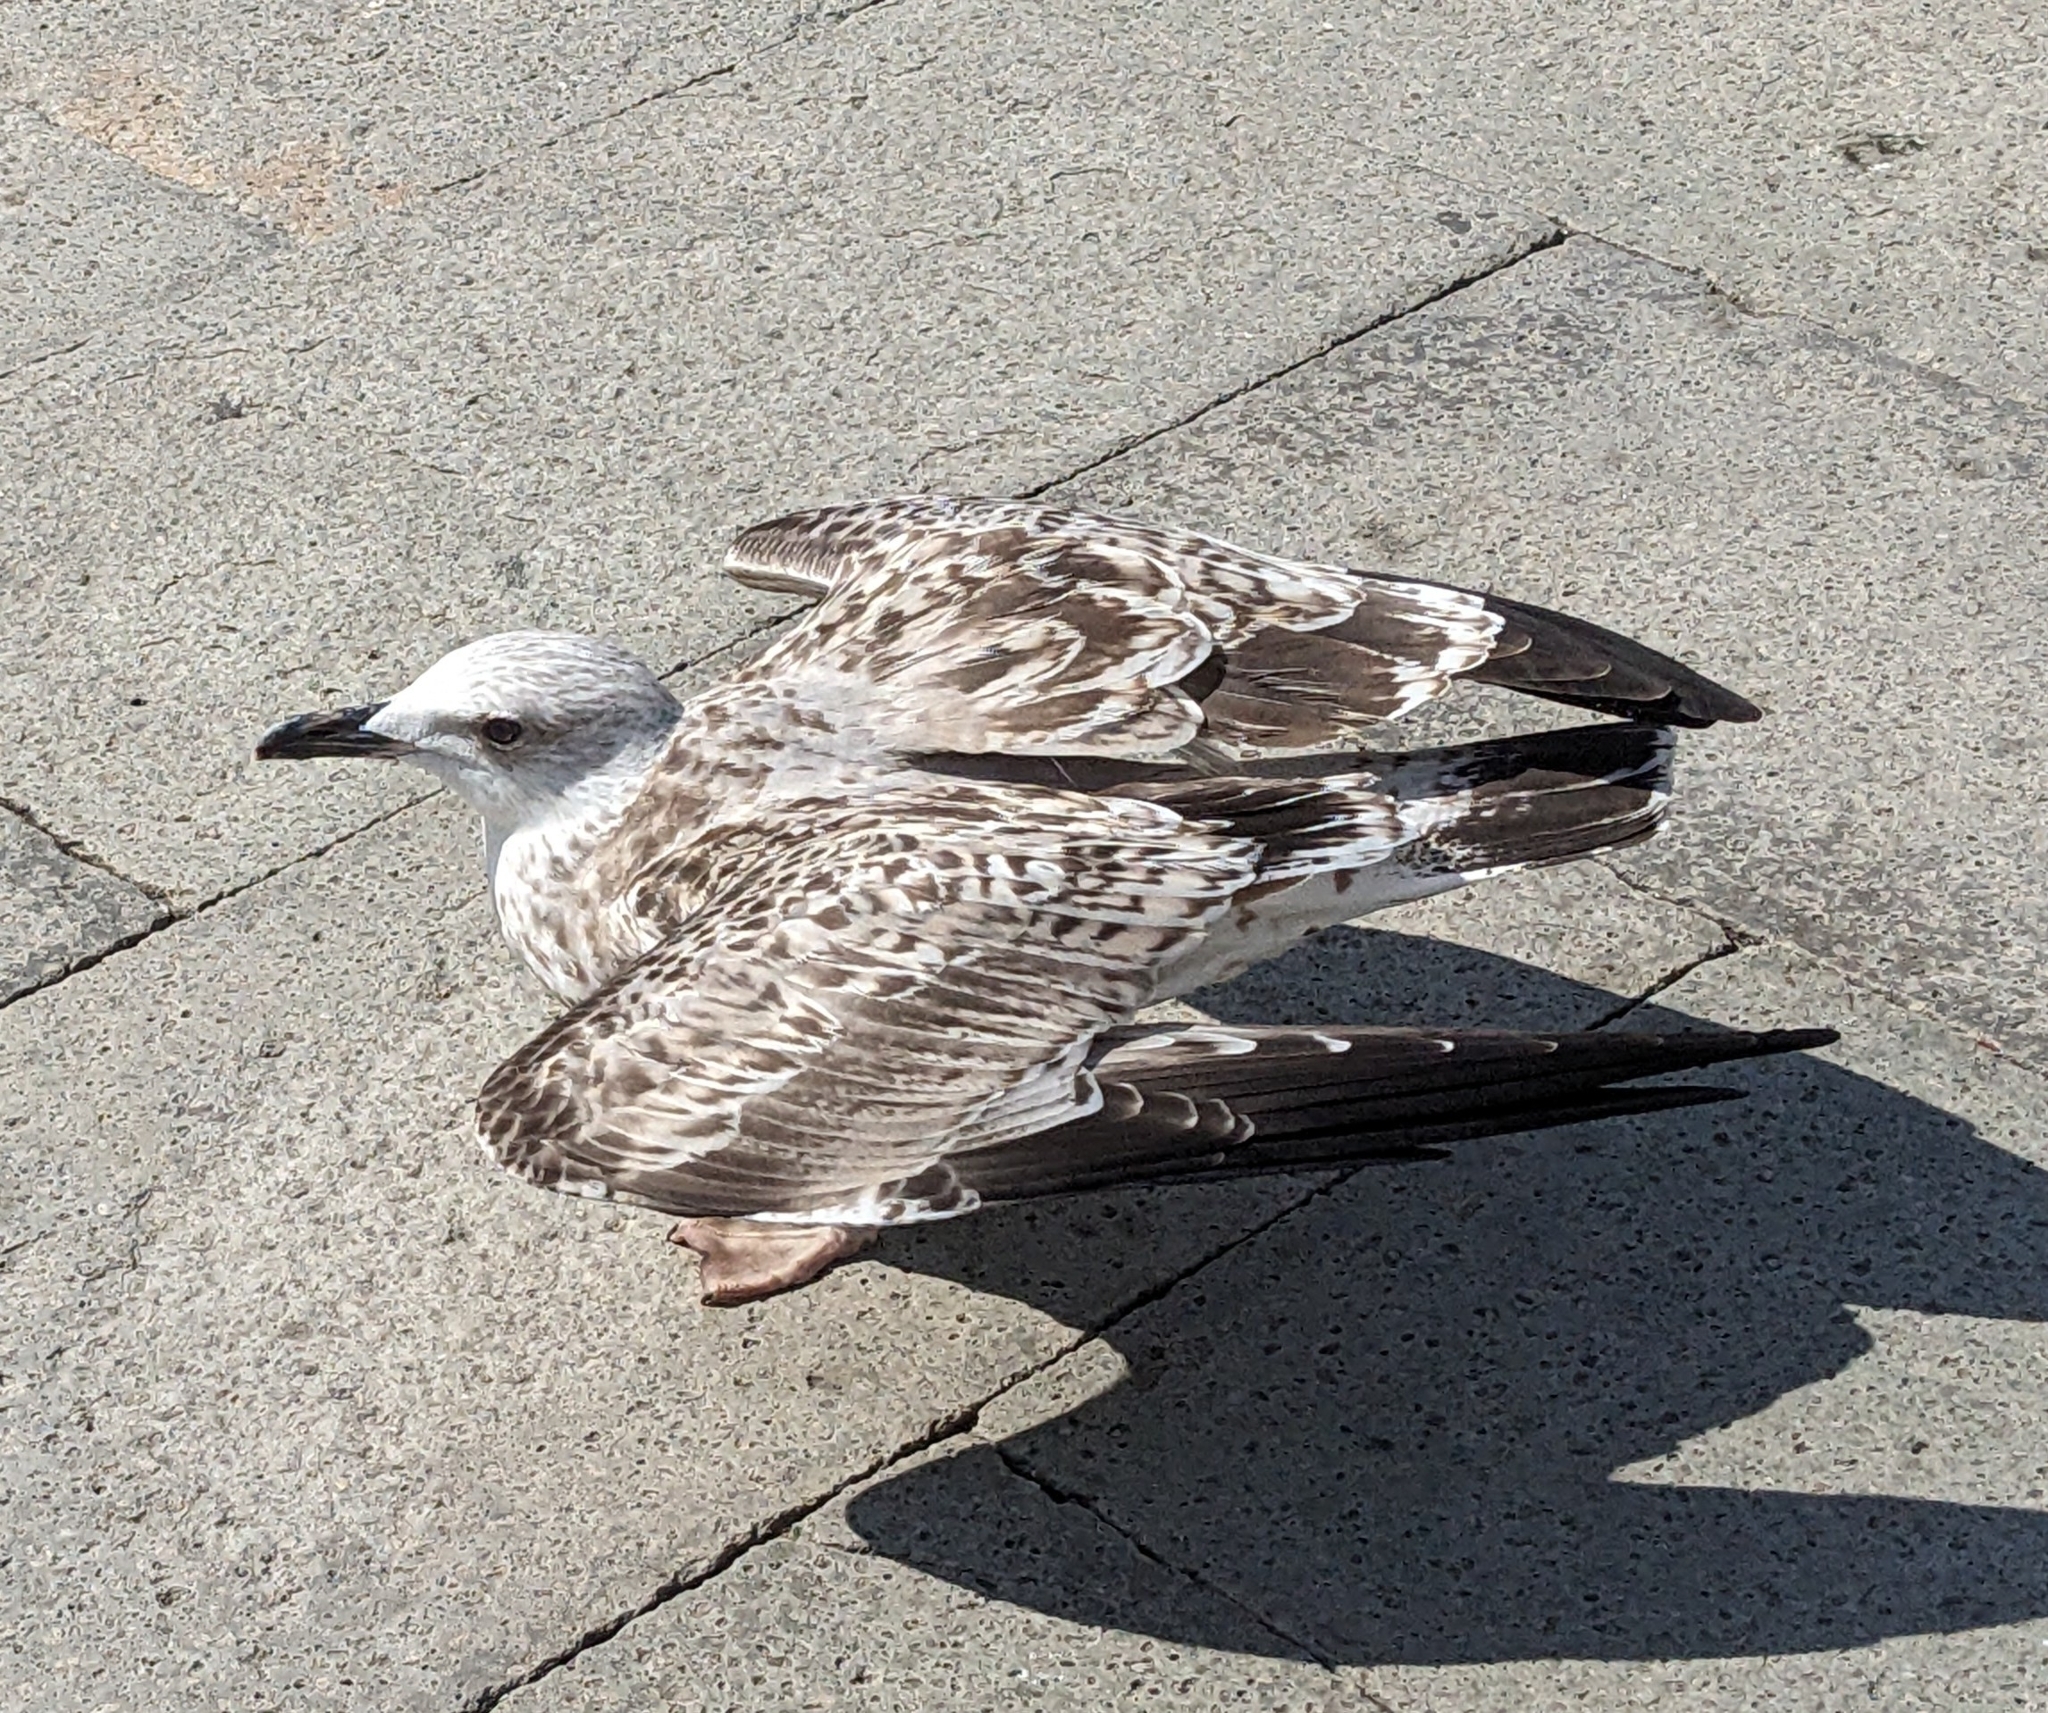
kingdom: Animalia
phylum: Chordata
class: Aves
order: Charadriiformes
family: Laridae
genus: Larus
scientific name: Larus michahellis
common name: Yellow-legged gull
